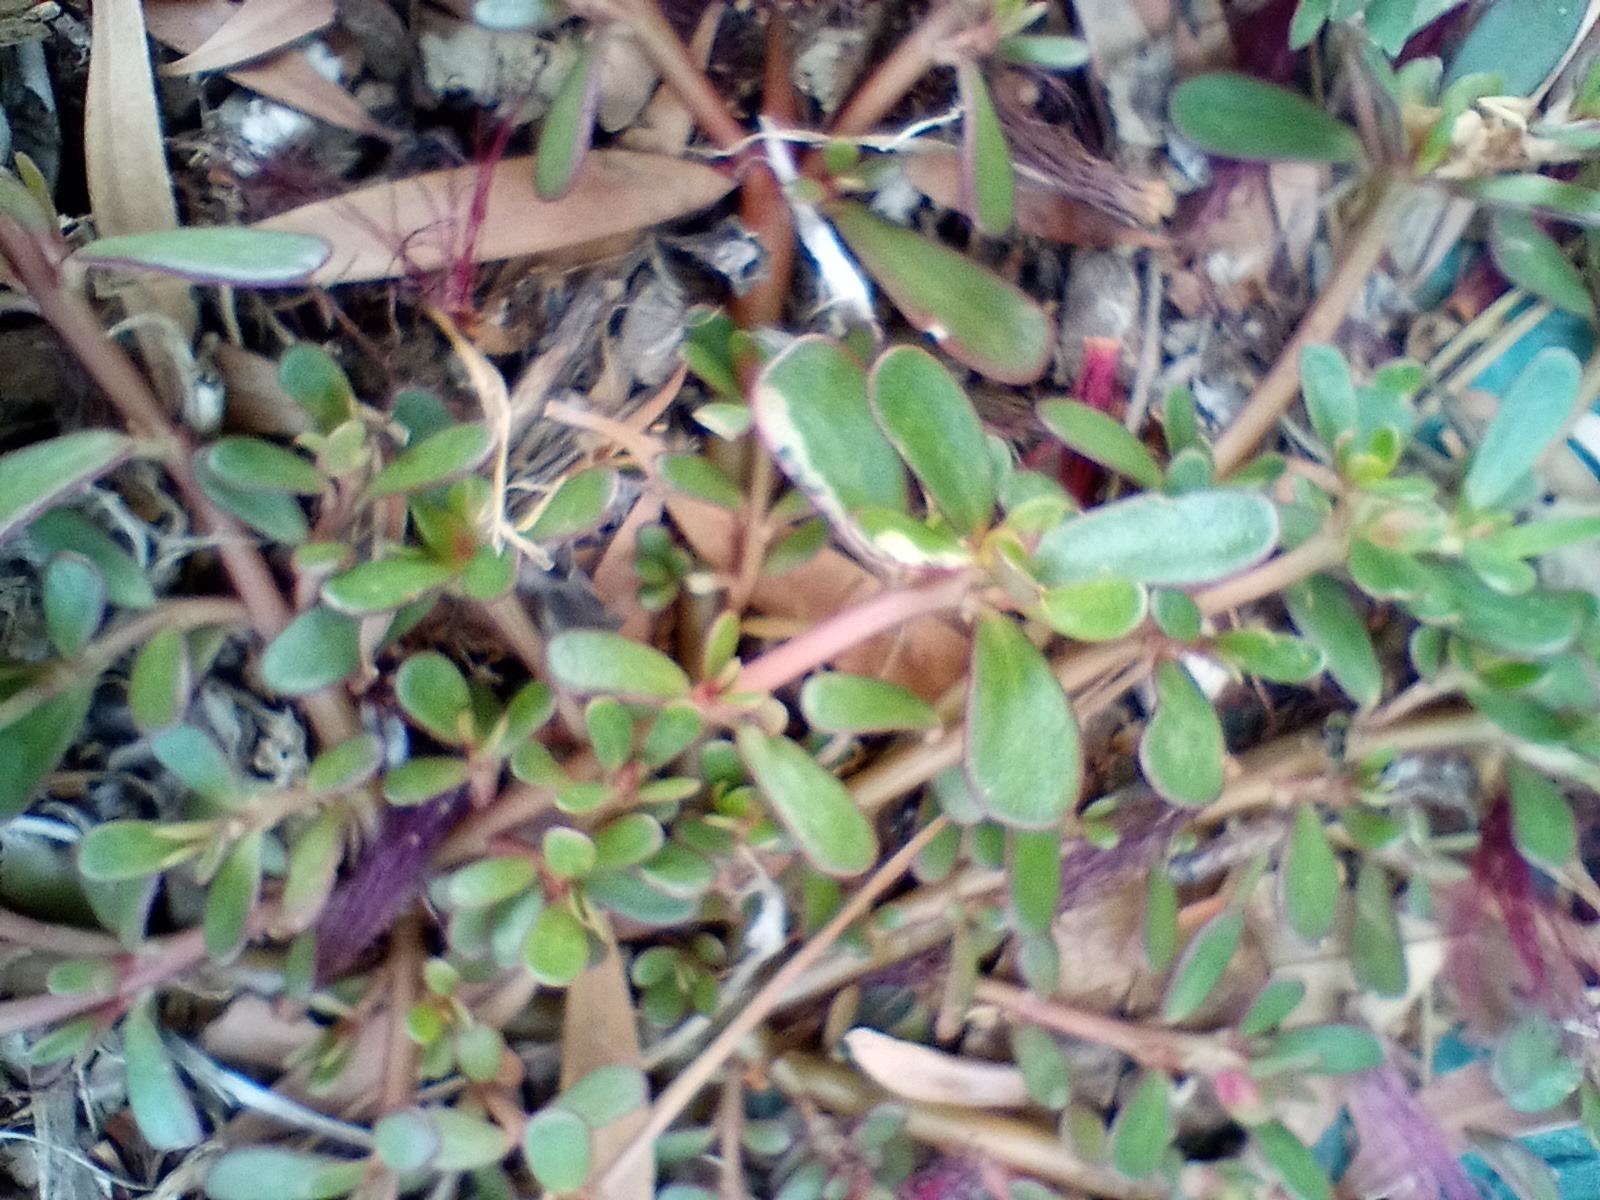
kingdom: Plantae
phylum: Tracheophyta
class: Magnoliopsida
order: Caryophyllales
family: Portulacaceae
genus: Portulaca
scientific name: Portulaca oleracea
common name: Common purslane
